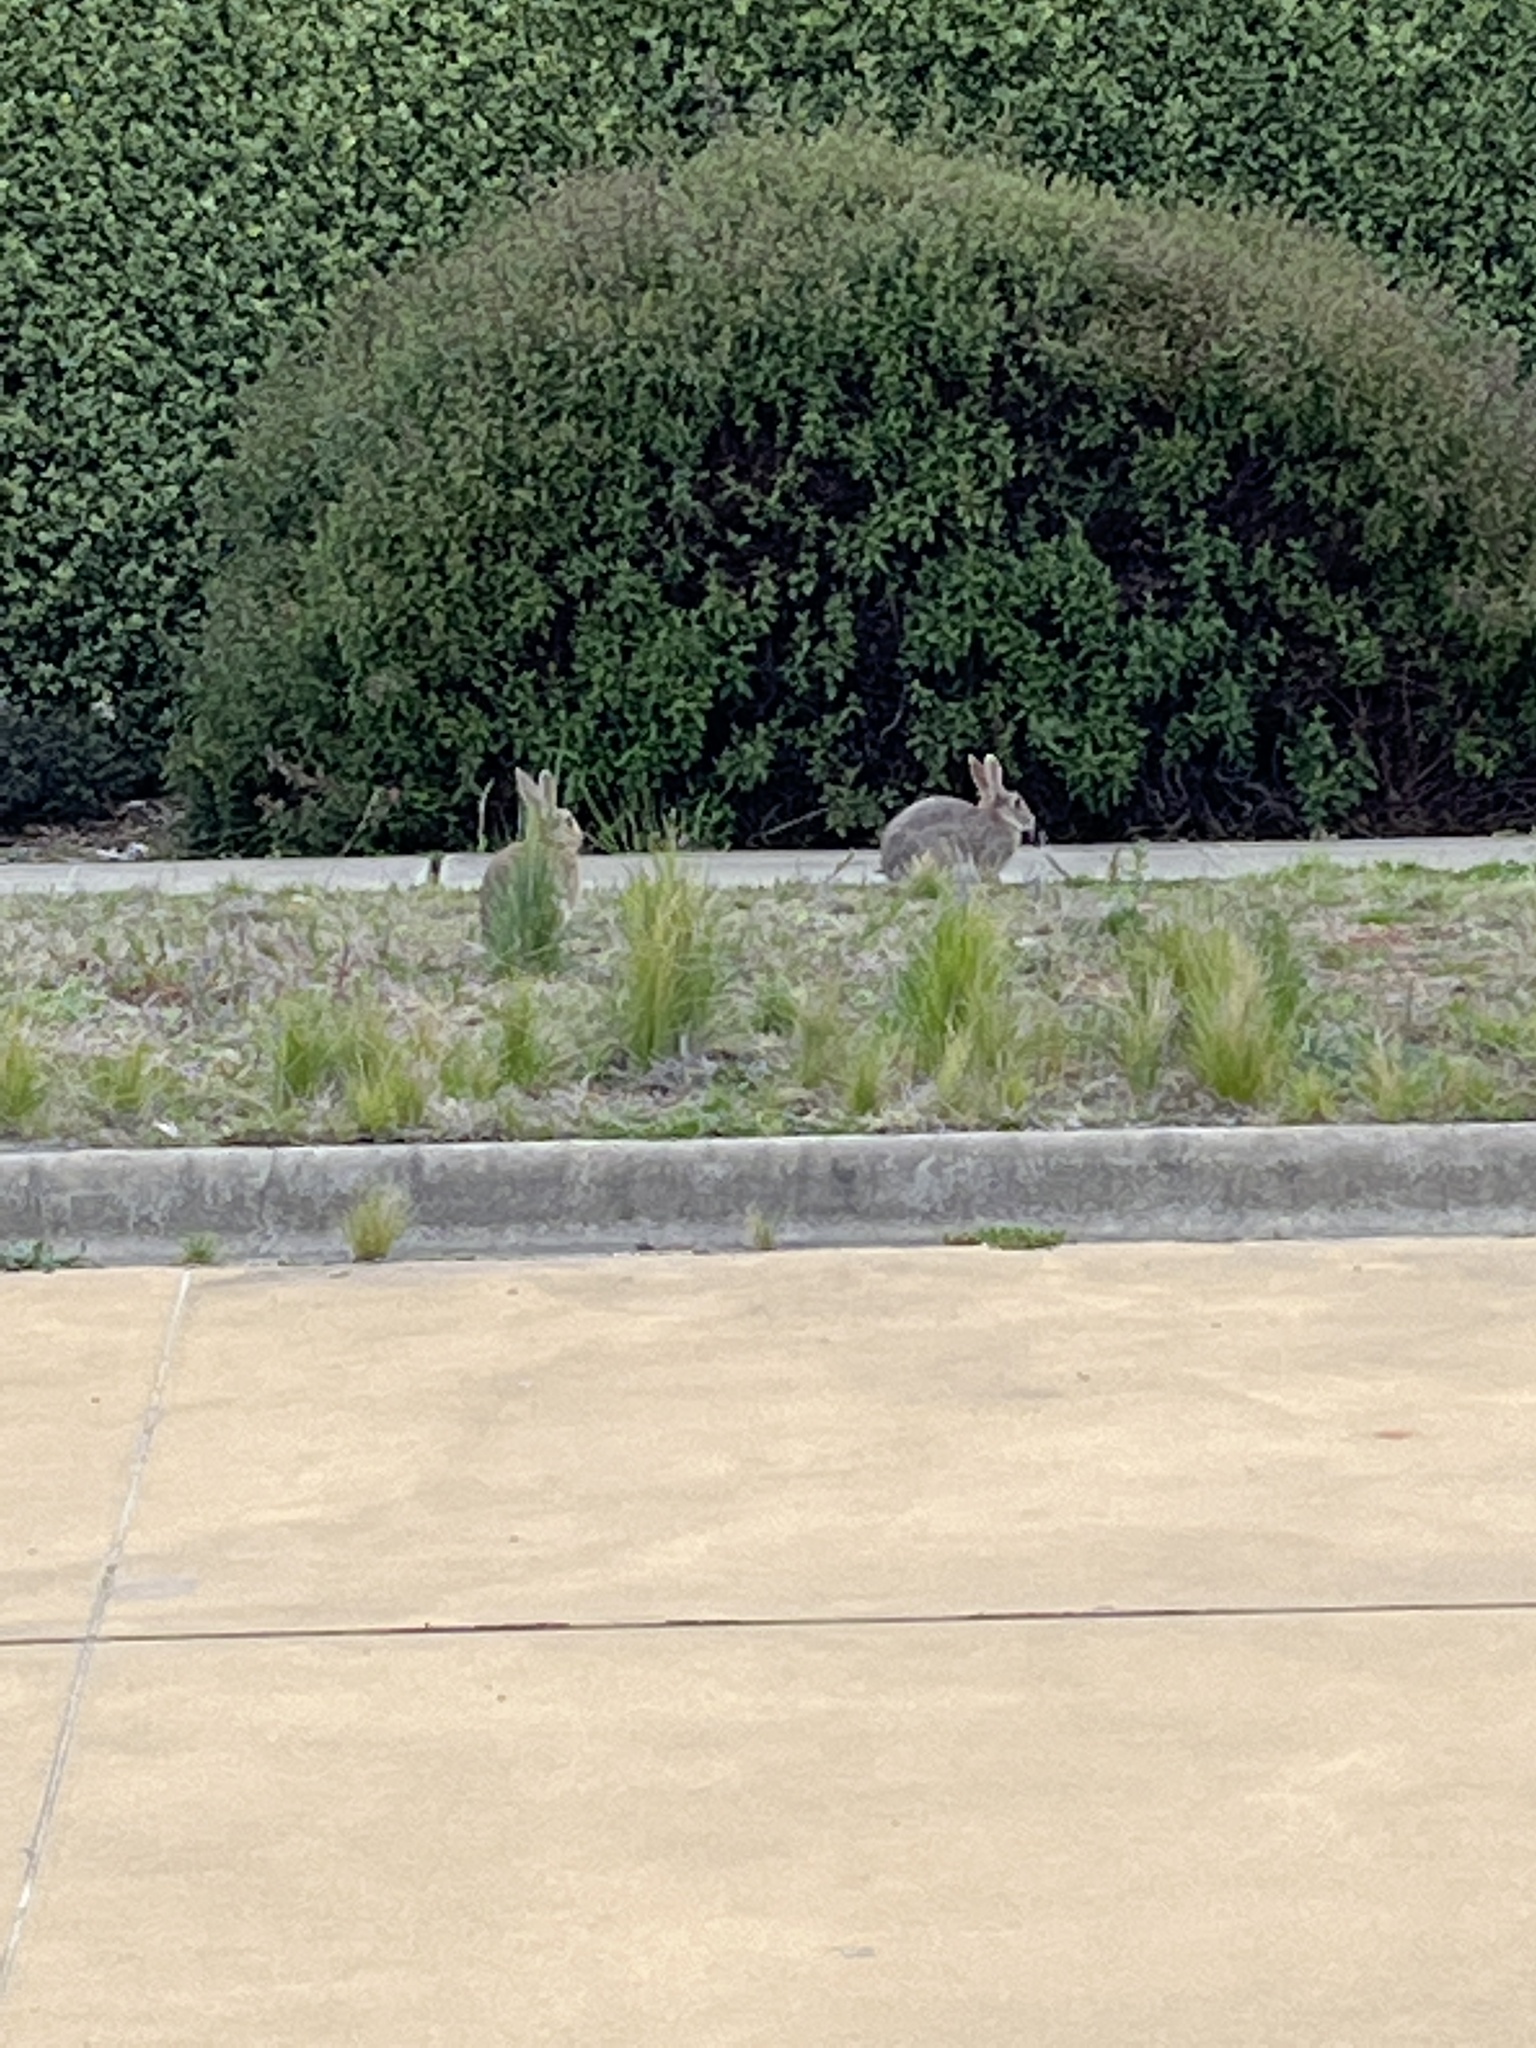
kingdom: Animalia
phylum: Chordata
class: Mammalia
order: Lagomorpha
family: Leporidae
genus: Oryctolagus
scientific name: Oryctolagus cuniculus
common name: European rabbit
